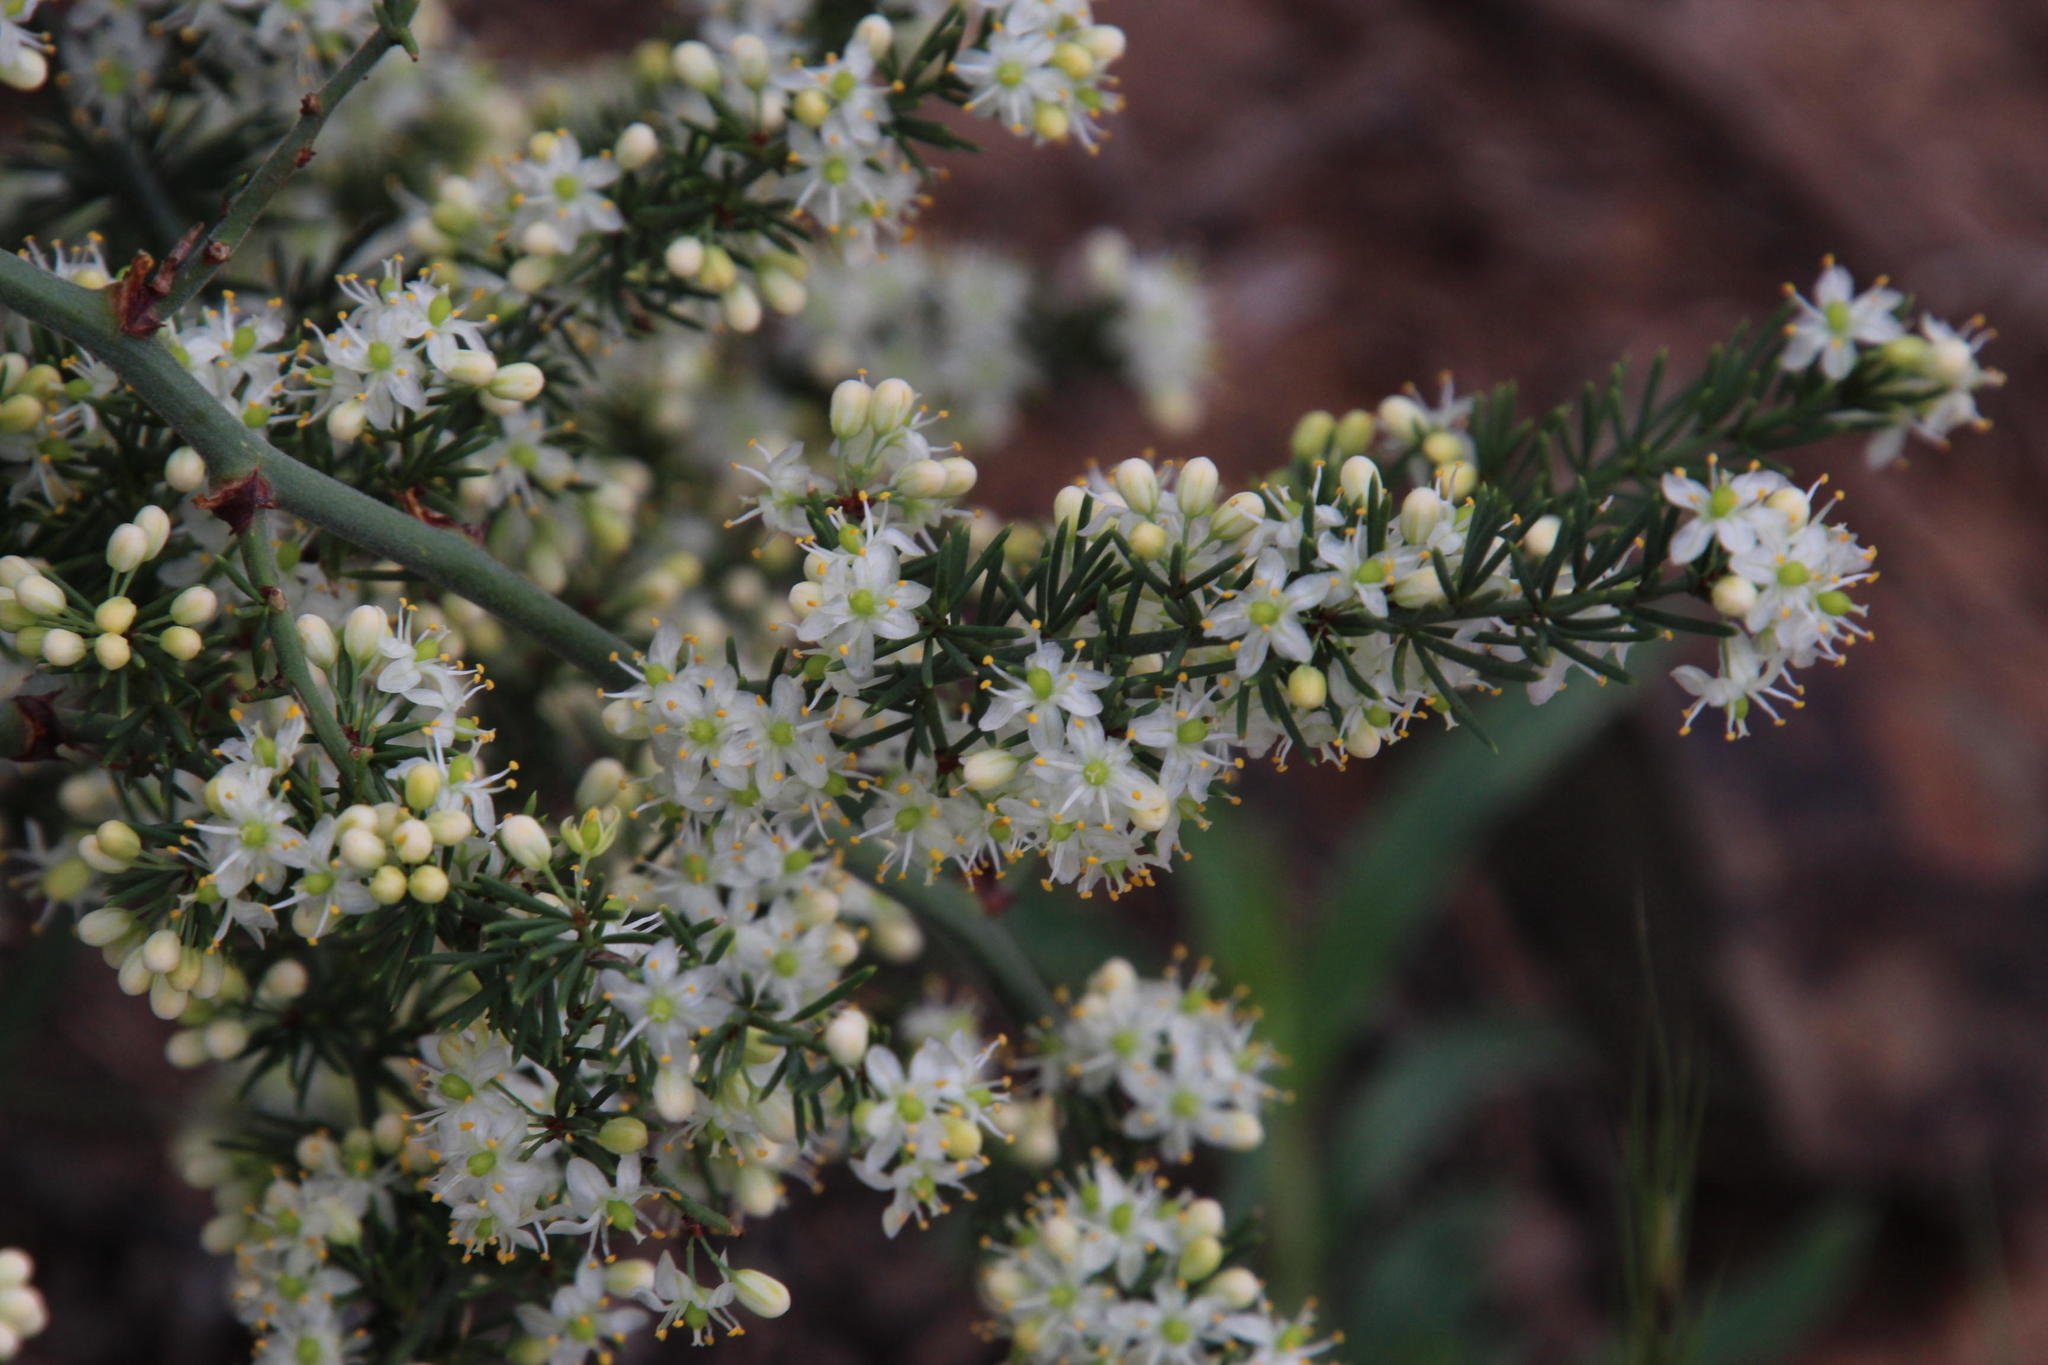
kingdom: Plantae
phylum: Tracheophyta
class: Liliopsida
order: Asparagales
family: Asparagaceae
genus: Asparagus
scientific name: Asparagus africanus
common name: Asparagus-fern
